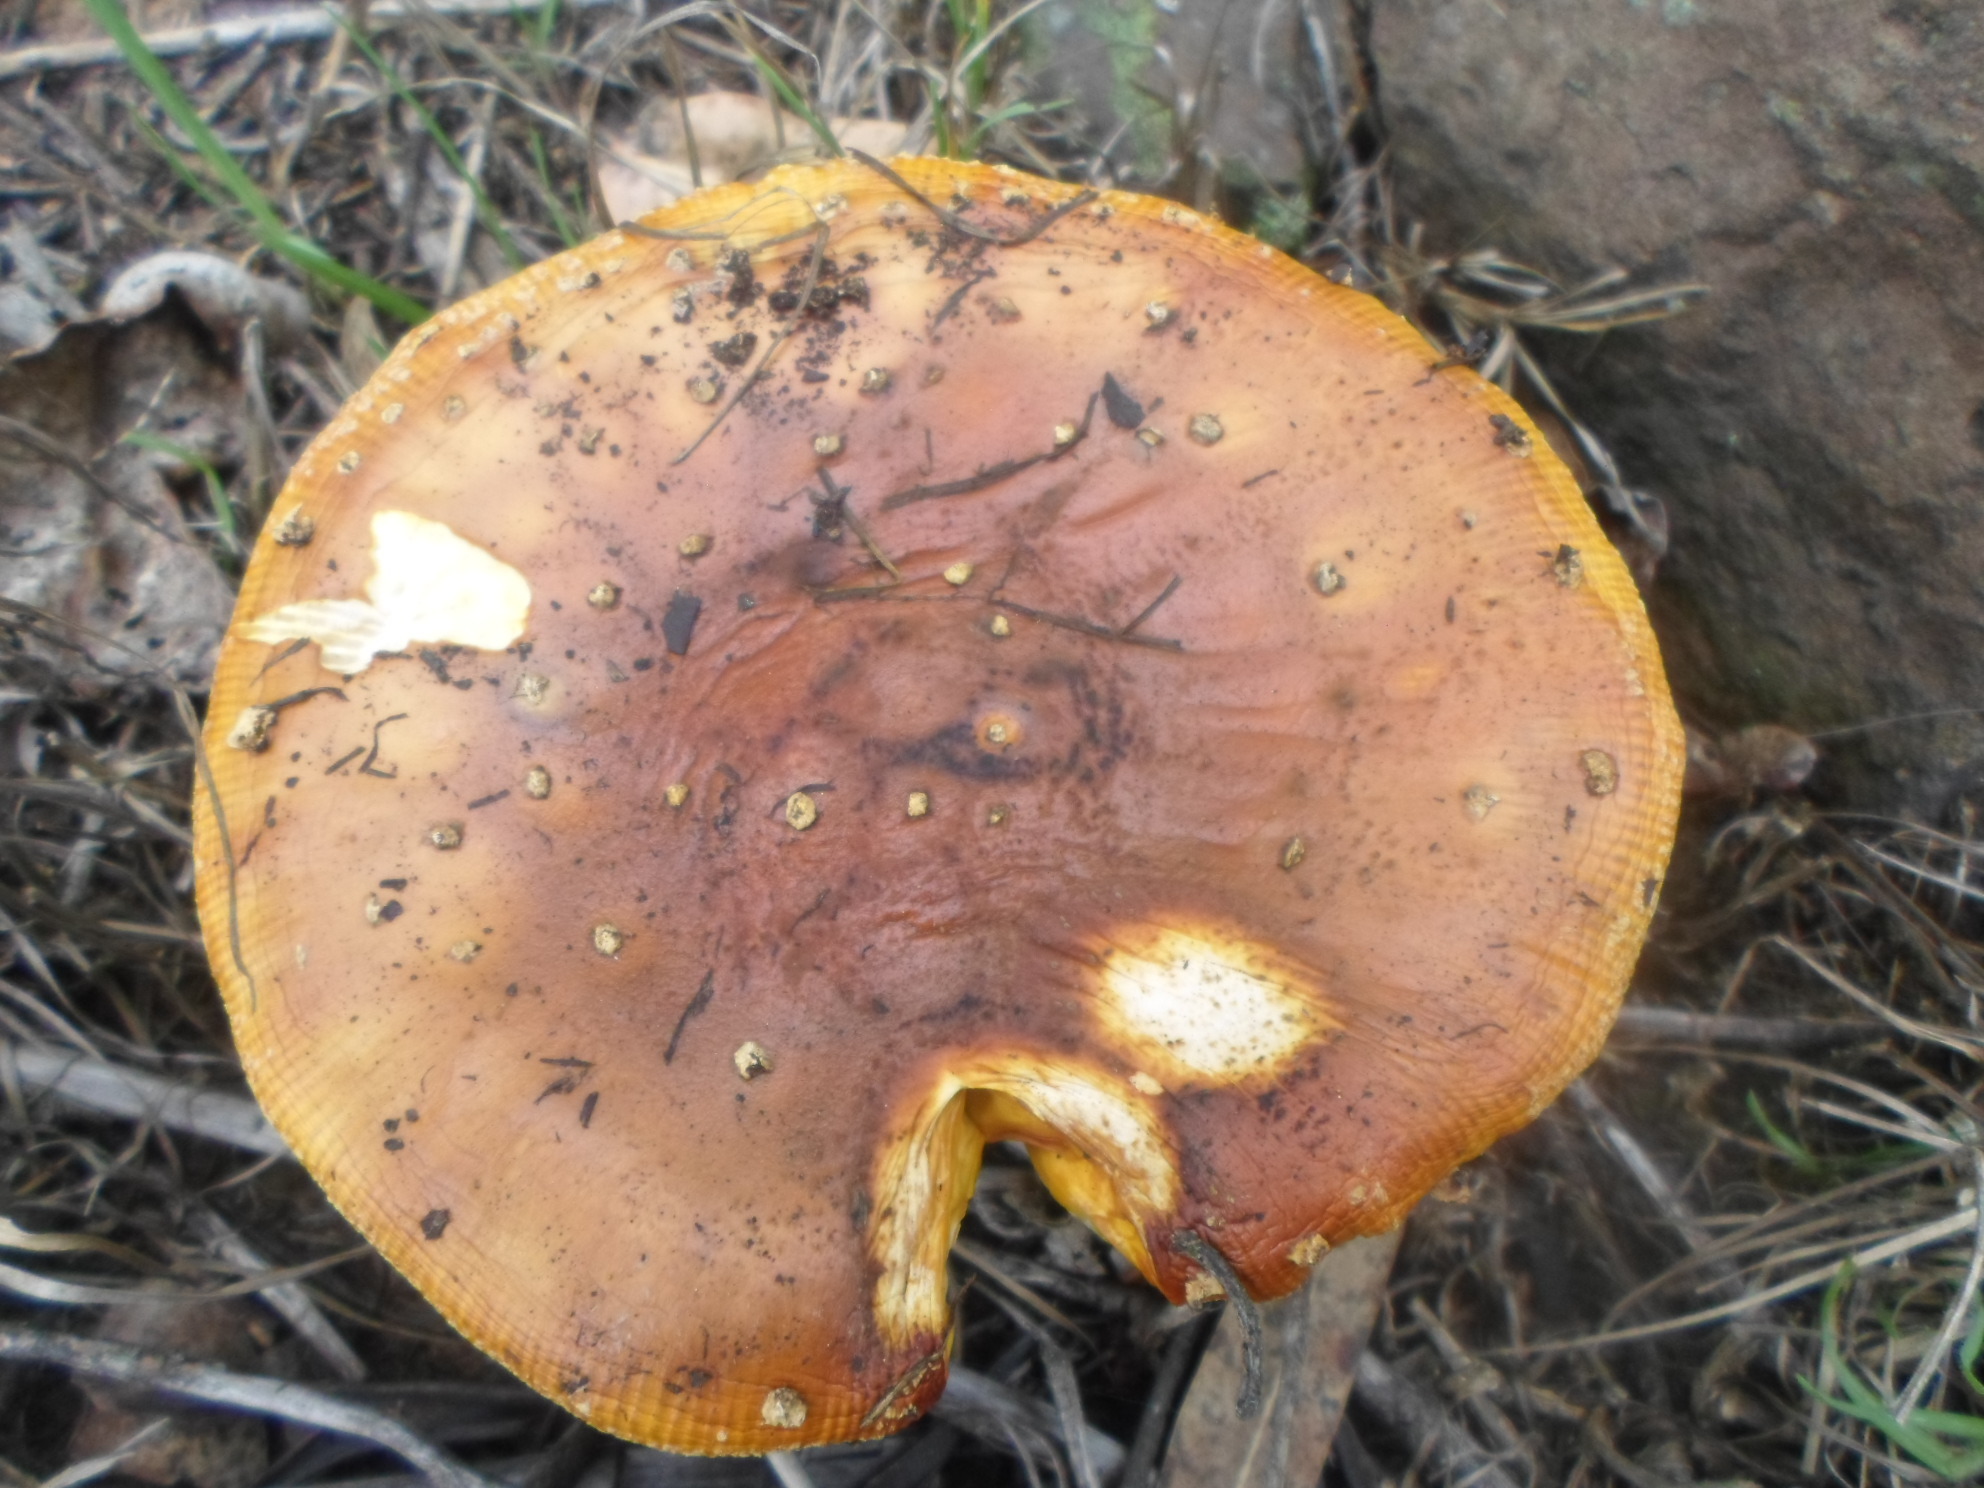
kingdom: Fungi
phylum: Basidiomycota
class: Agaricomycetes
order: Agaricales
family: Amanitaceae
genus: Amanita
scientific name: Amanita muscaria
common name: Fly agaric
